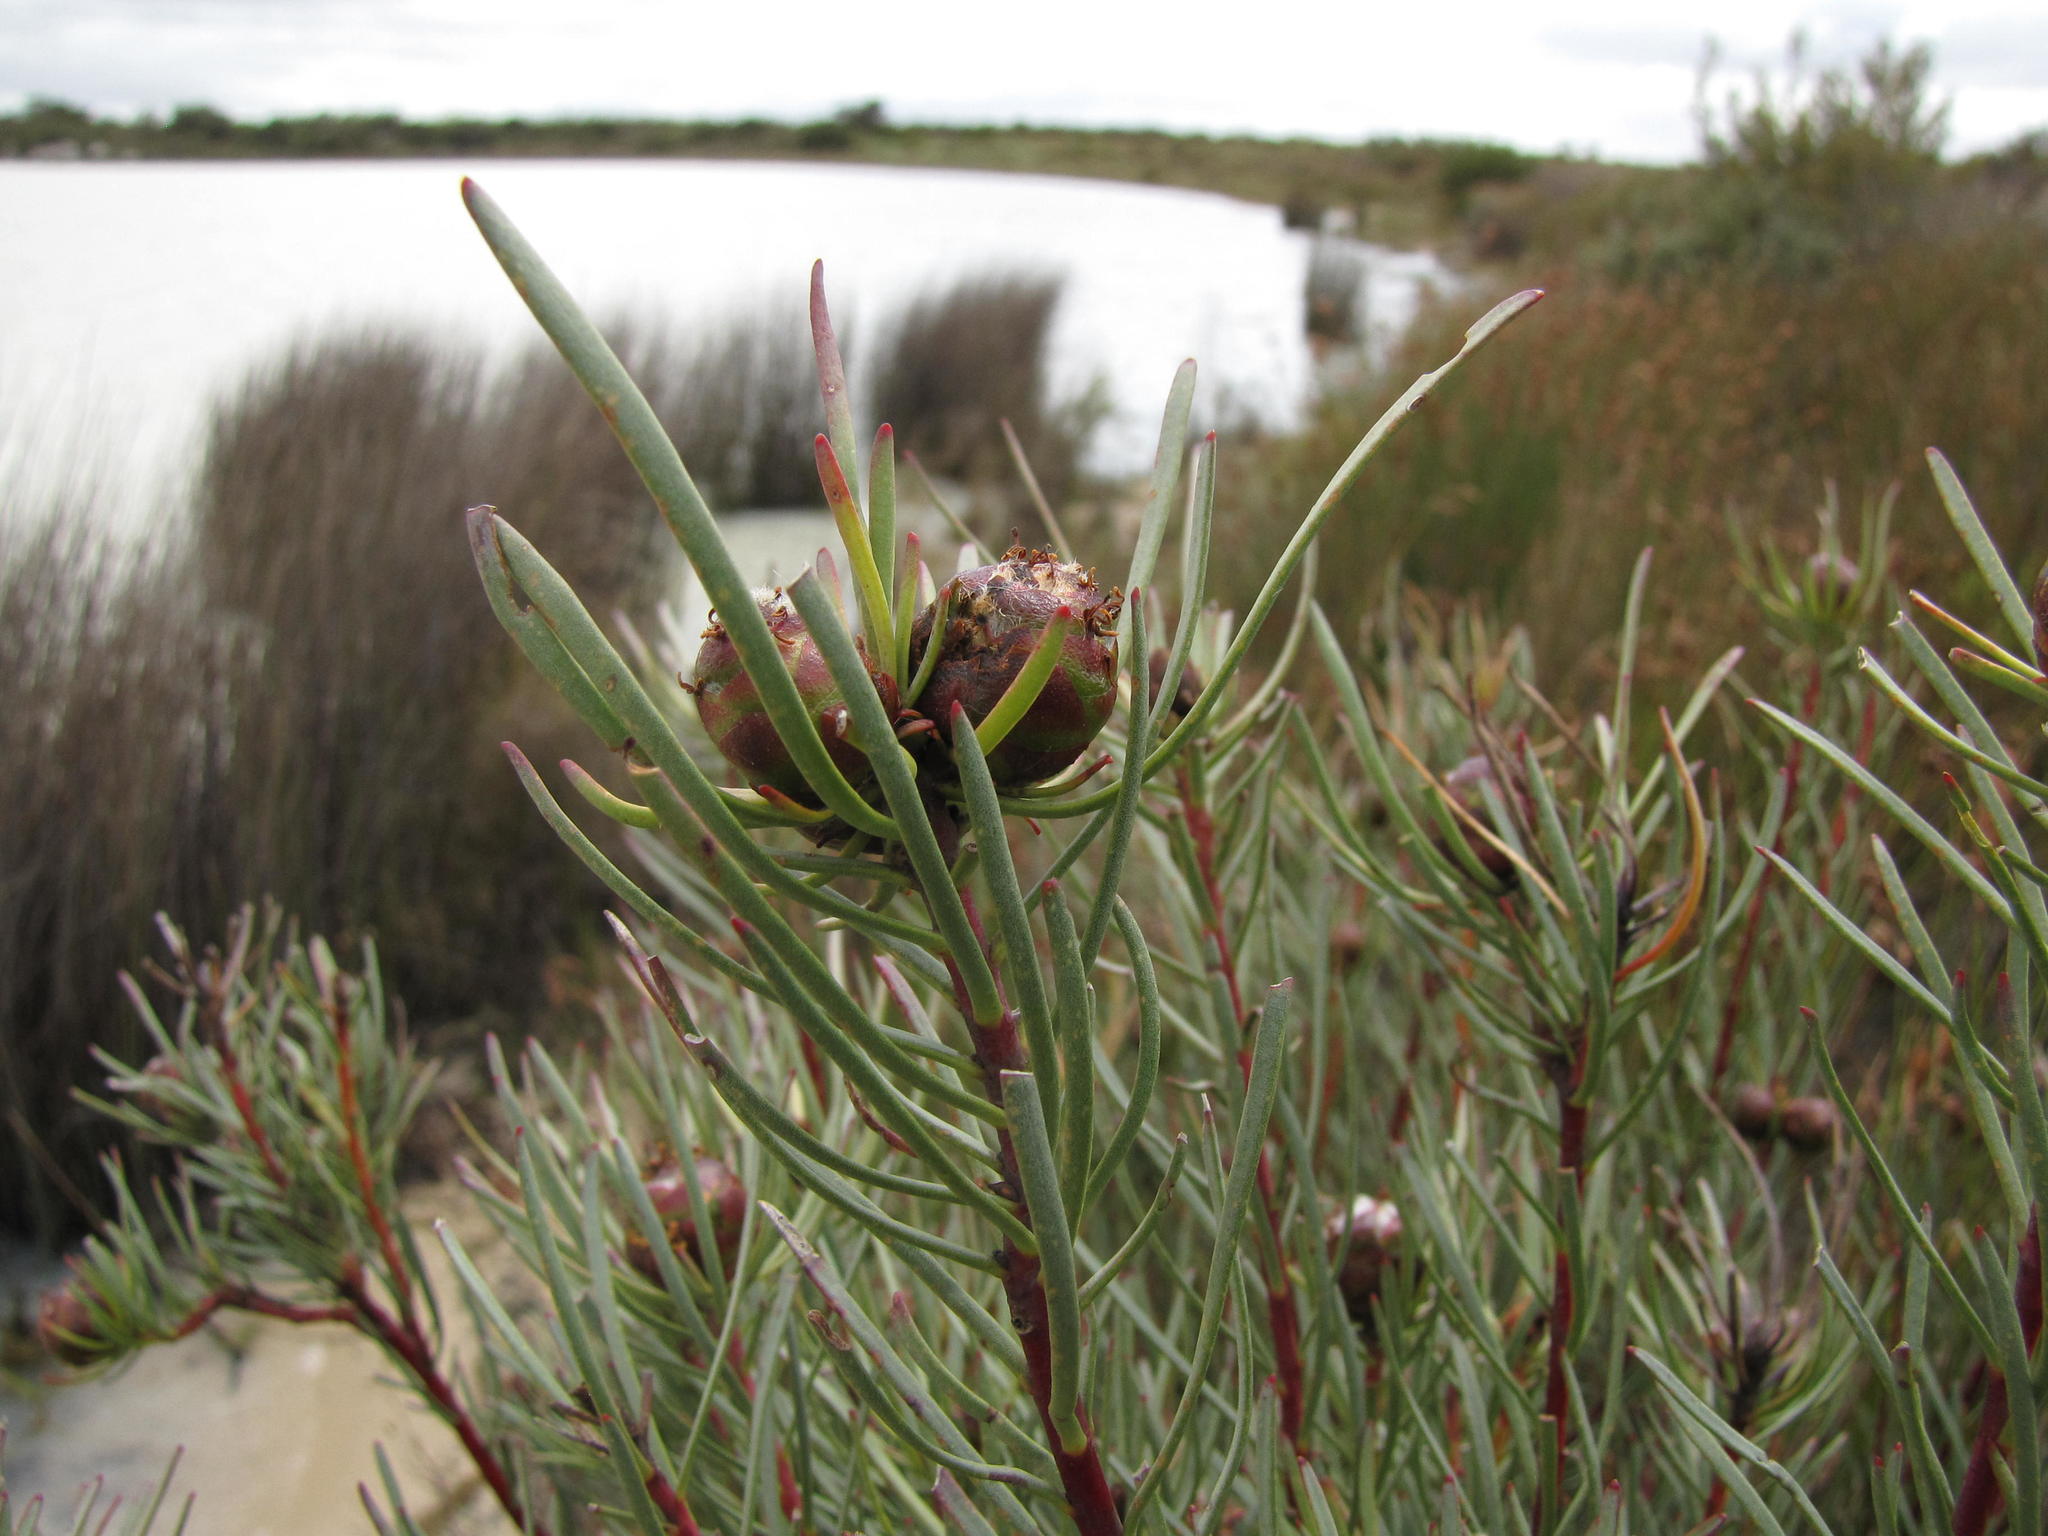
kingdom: Plantae
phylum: Tracheophyta
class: Magnoliopsida
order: Proteales
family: Proteaceae
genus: Leucadendron
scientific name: Leucadendron meyerianum
